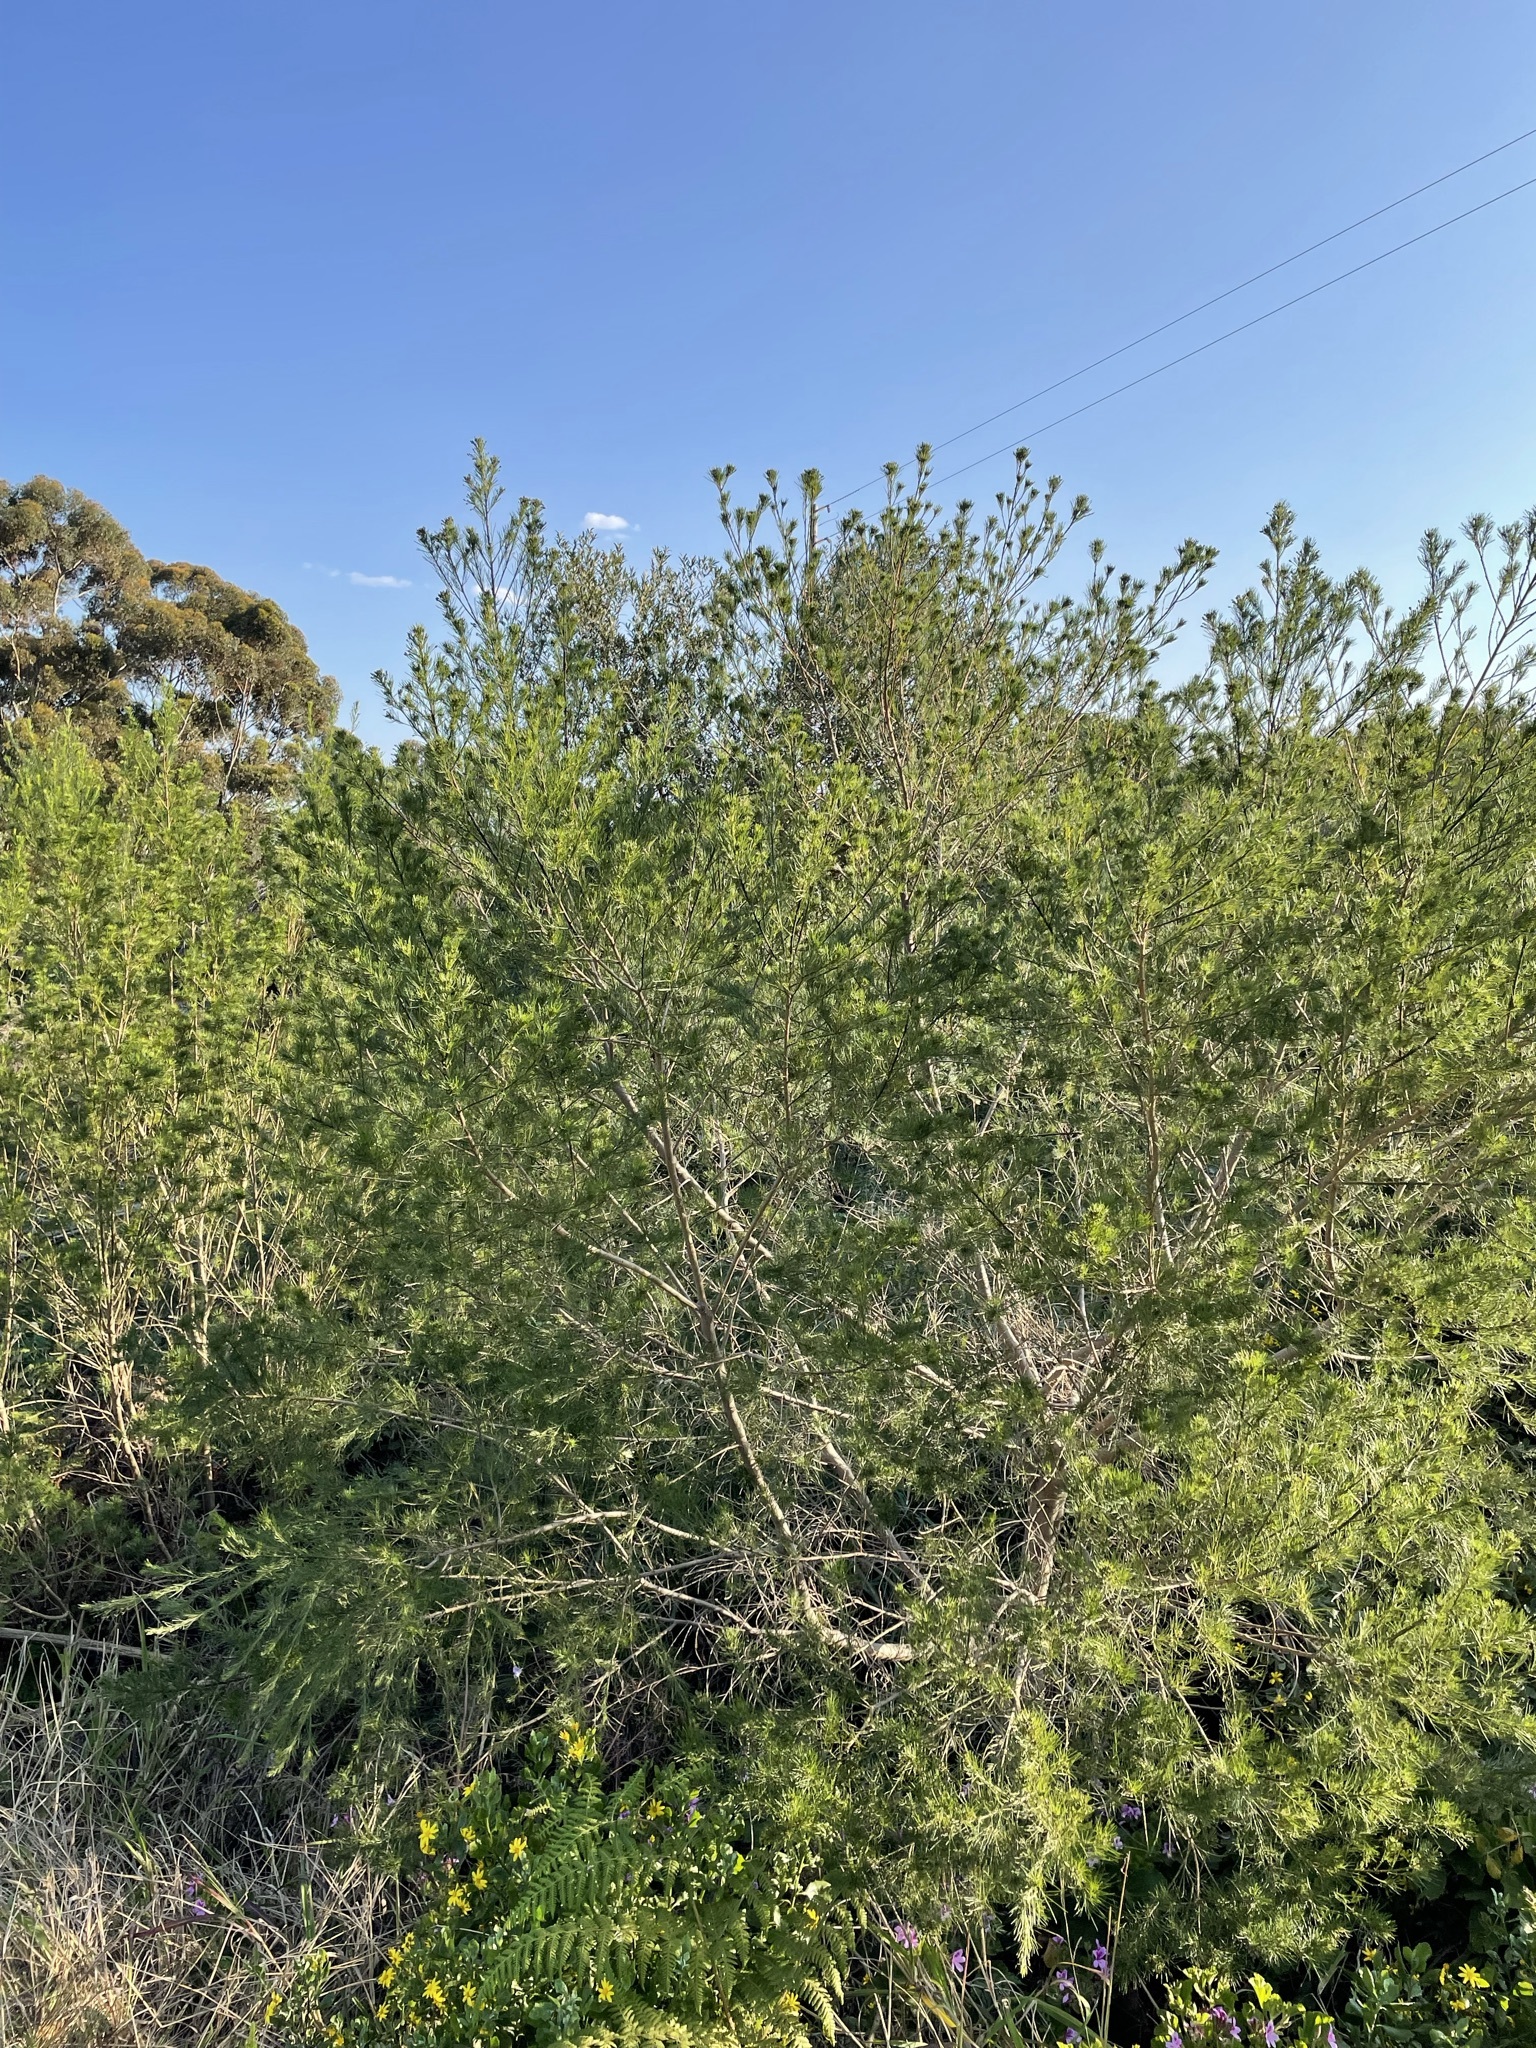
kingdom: Plantae
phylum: Tracheophyta
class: Magnoliopsida
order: Fabales
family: Fabaceae
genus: Psoralea
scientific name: Psoralea arborea
